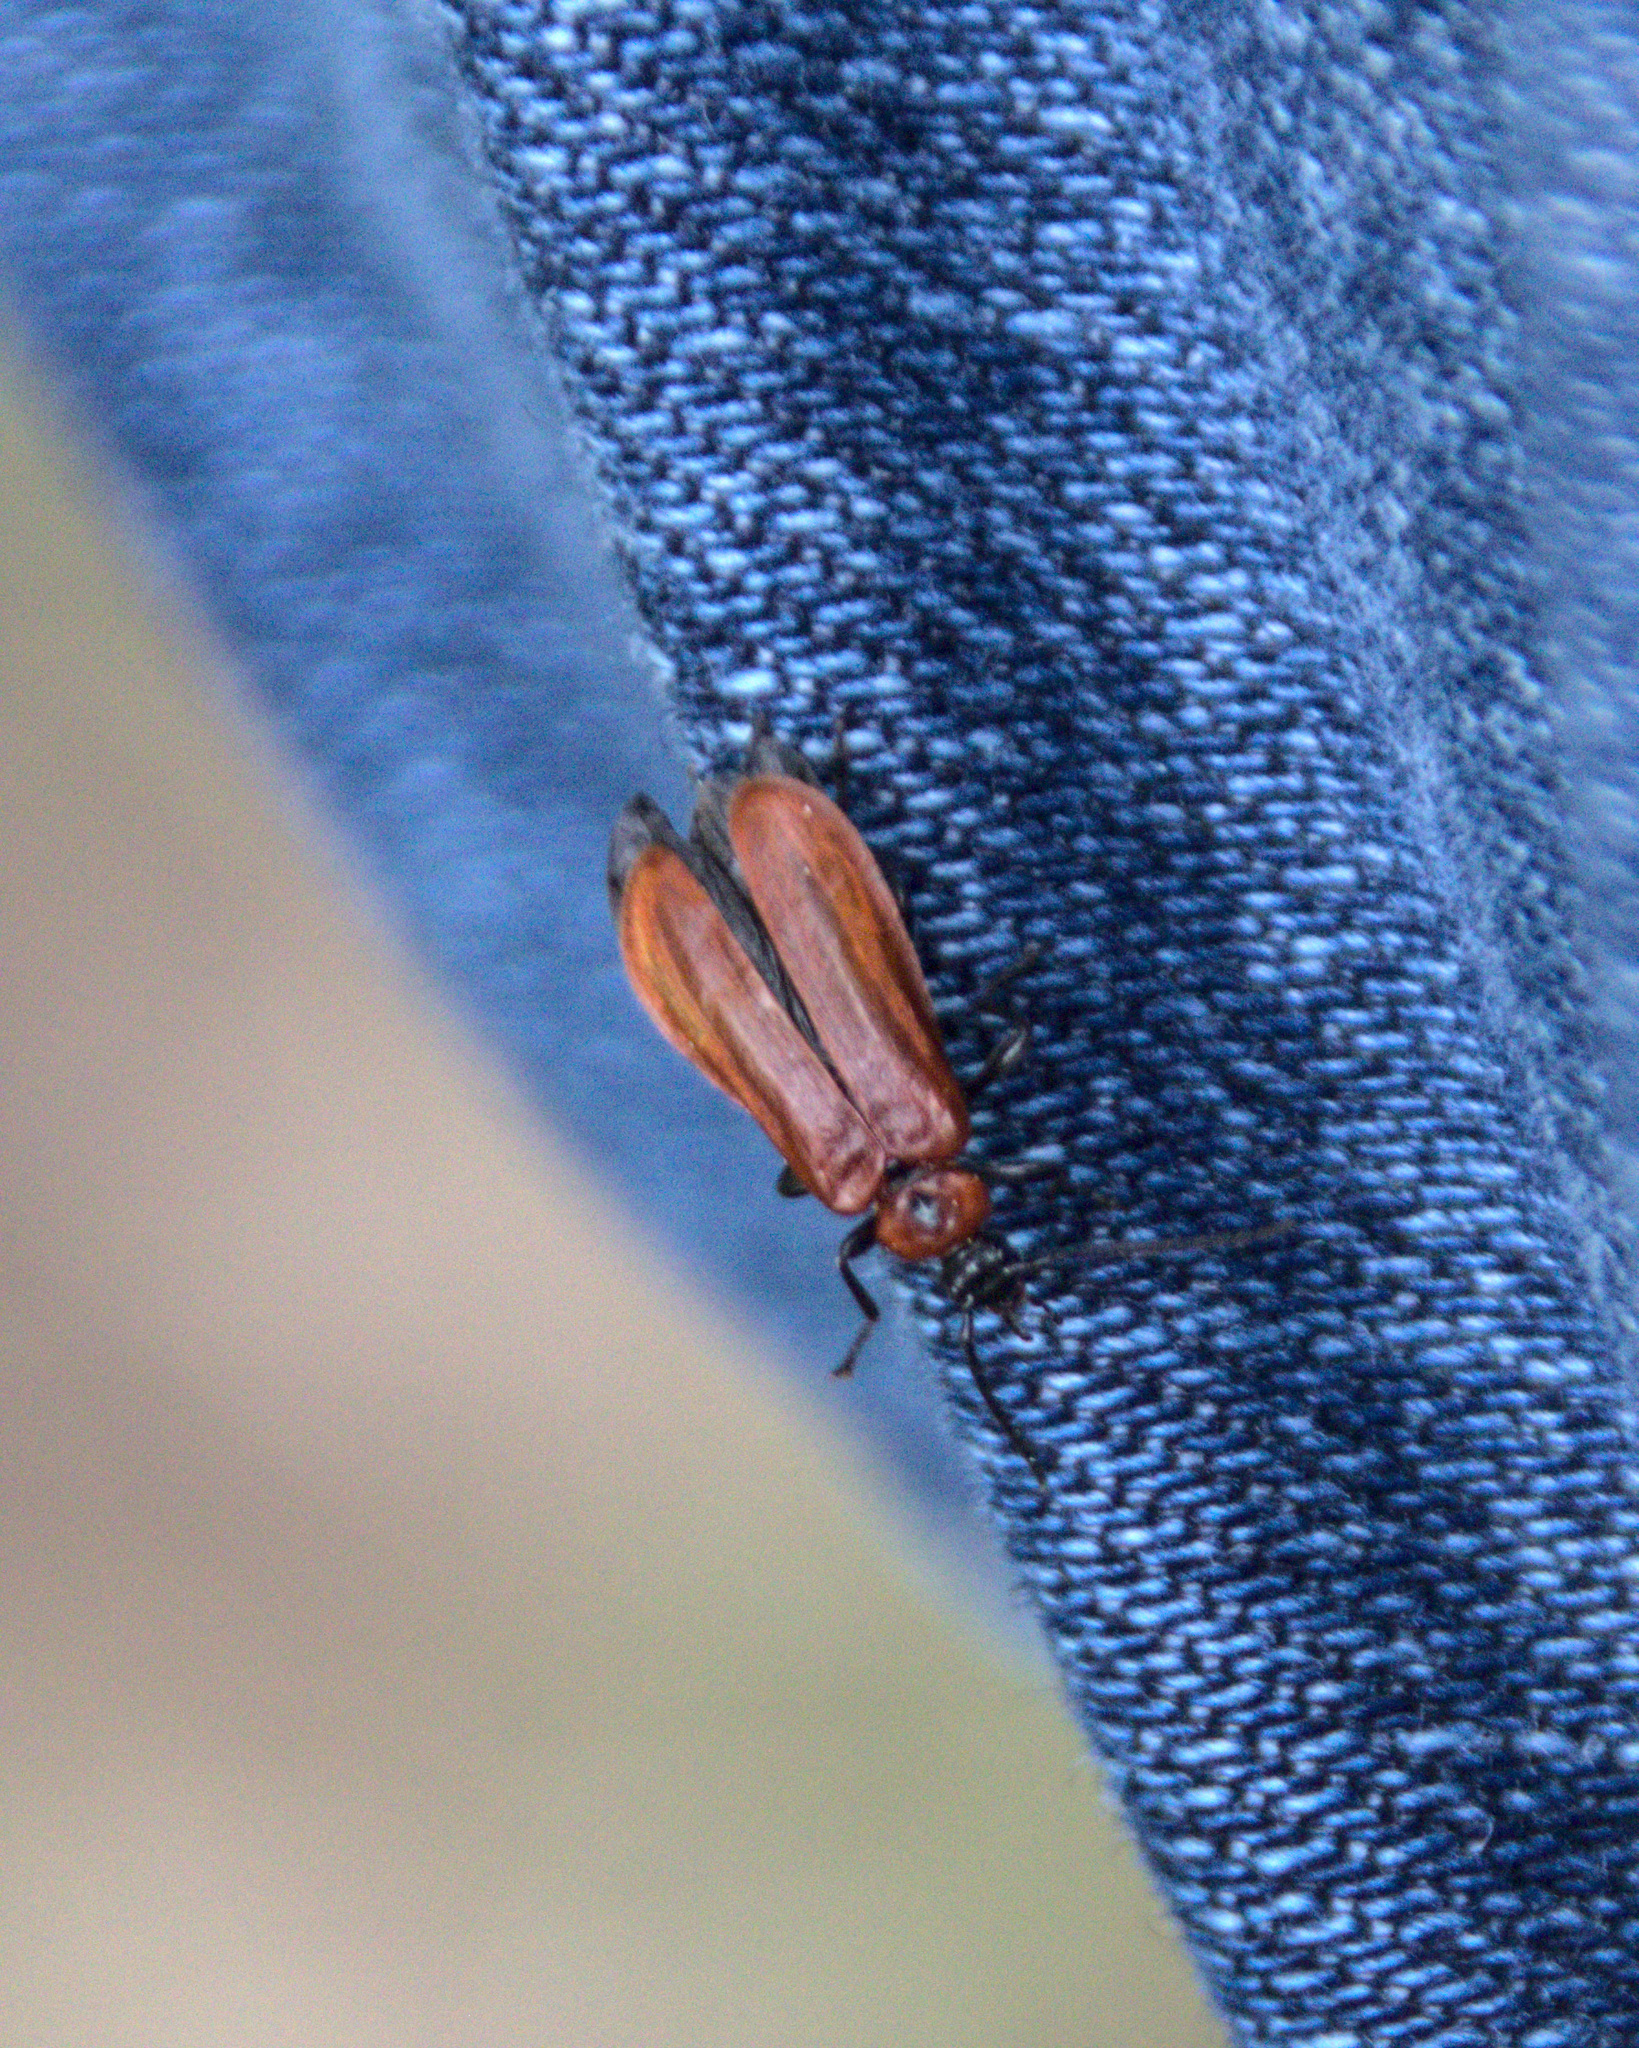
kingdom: Animalia
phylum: Arthropoda
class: Insecta
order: Coleoptera
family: Pyrochroidae
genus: Schizotus
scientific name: Schizotus pectinicornis
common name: Scarce cardinal beetle
